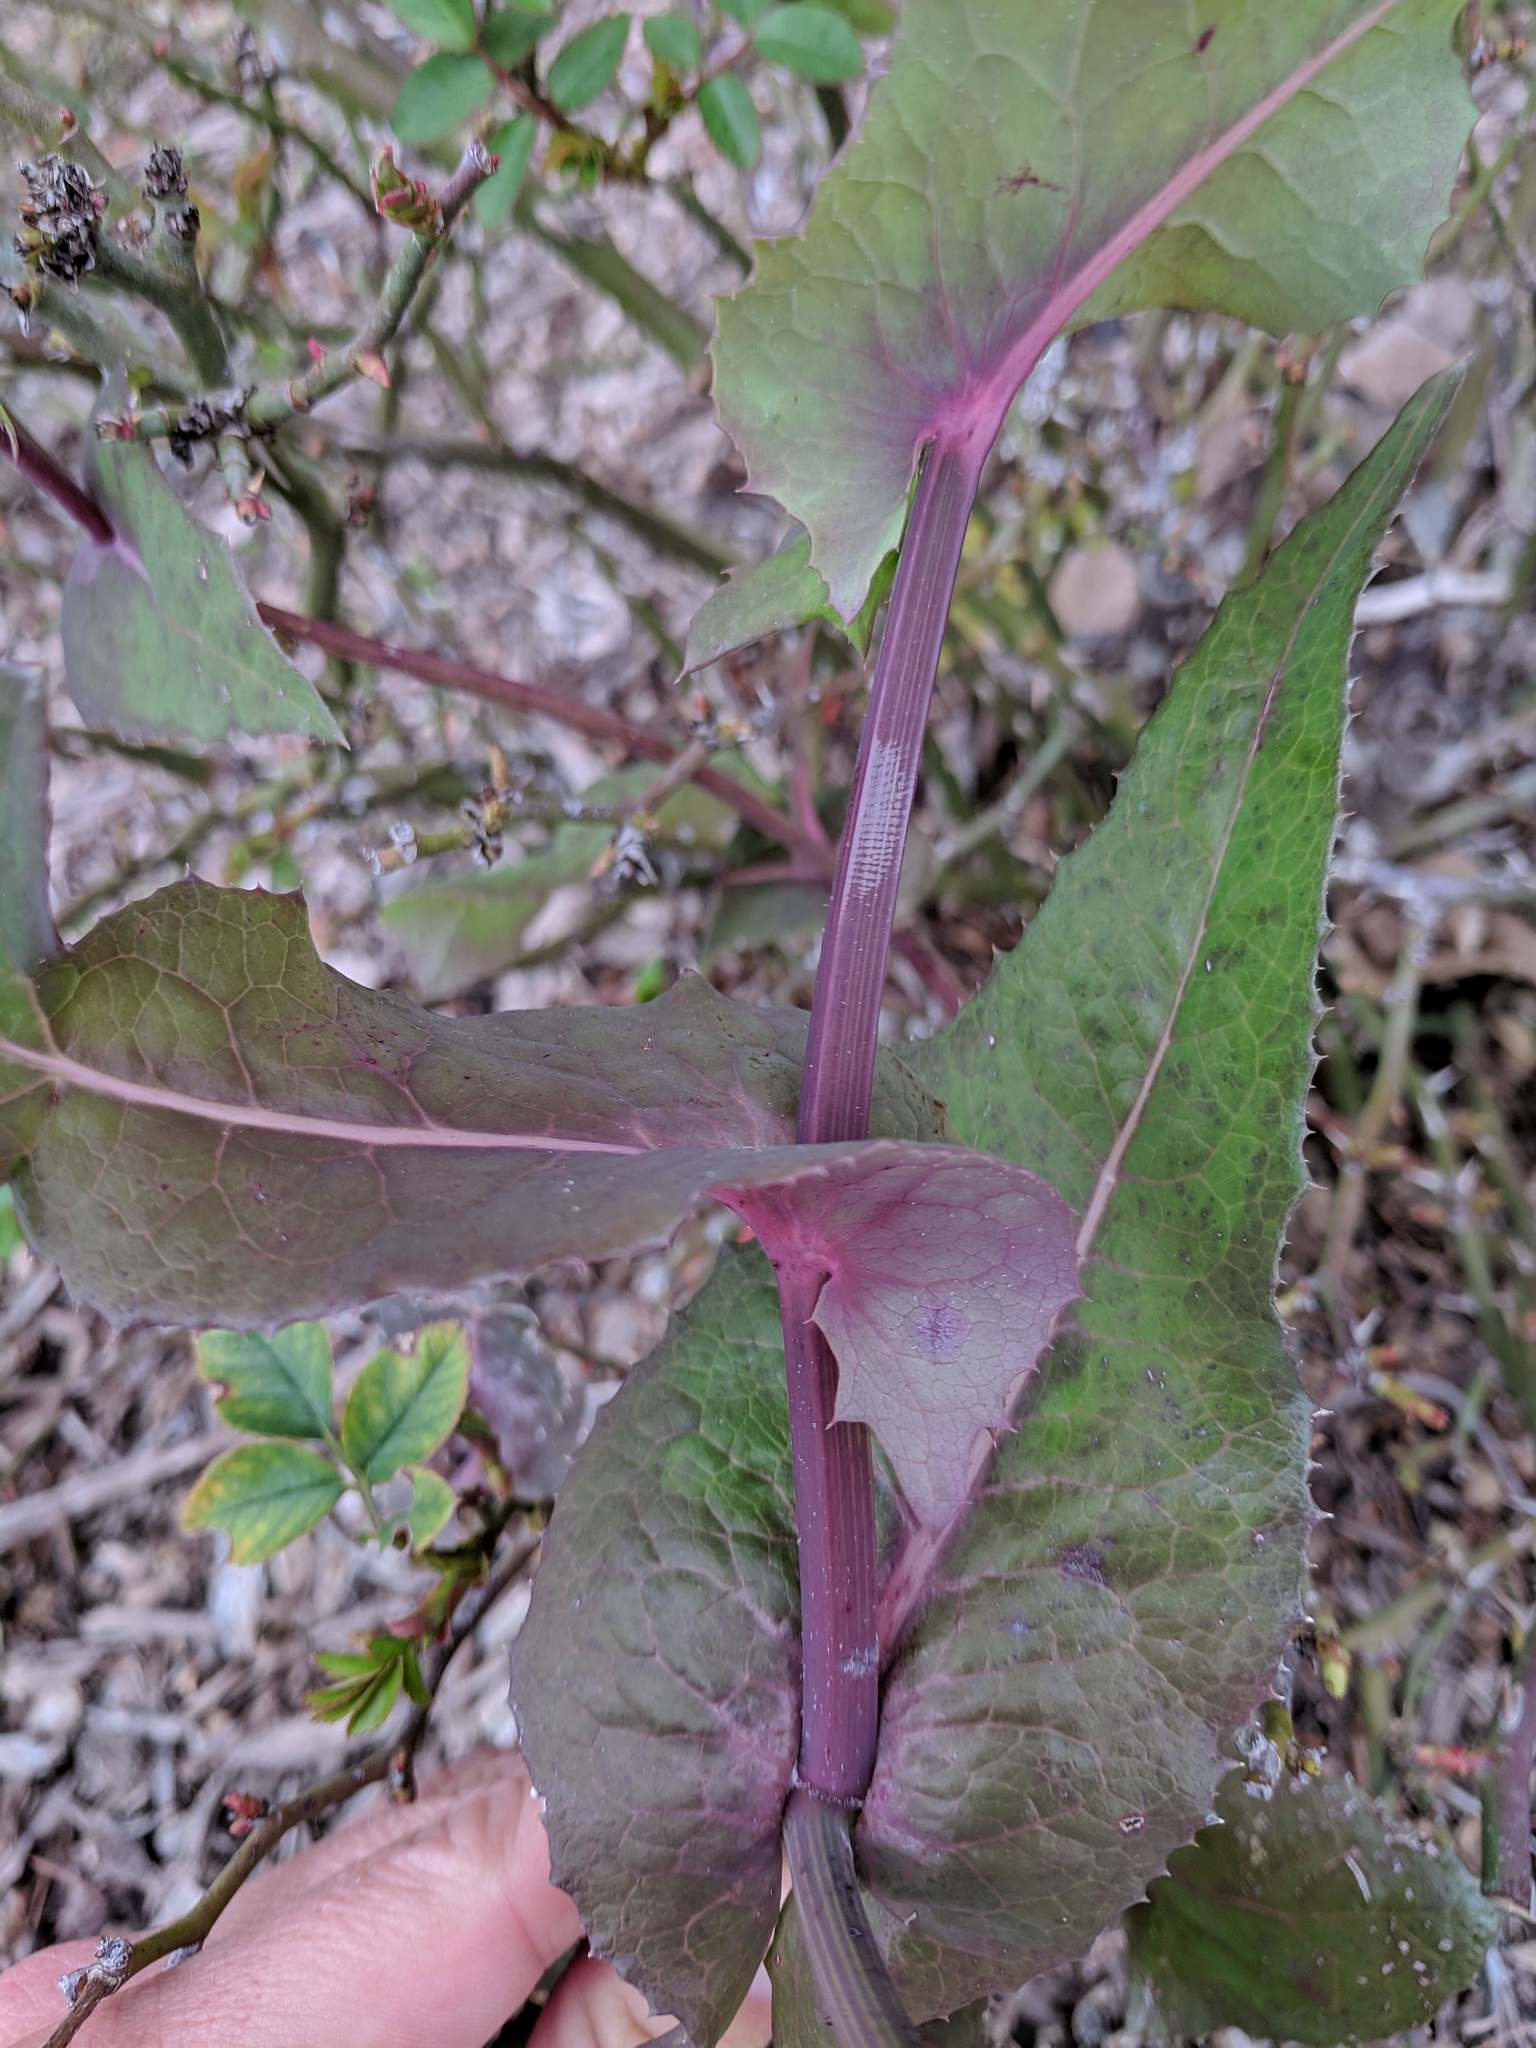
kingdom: Plantae
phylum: Tracheophyta
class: Magnoliopsida
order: Asterales
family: Asteraceae
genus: Sonchus
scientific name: Sonchus oleraceus
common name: Common sowthistle
